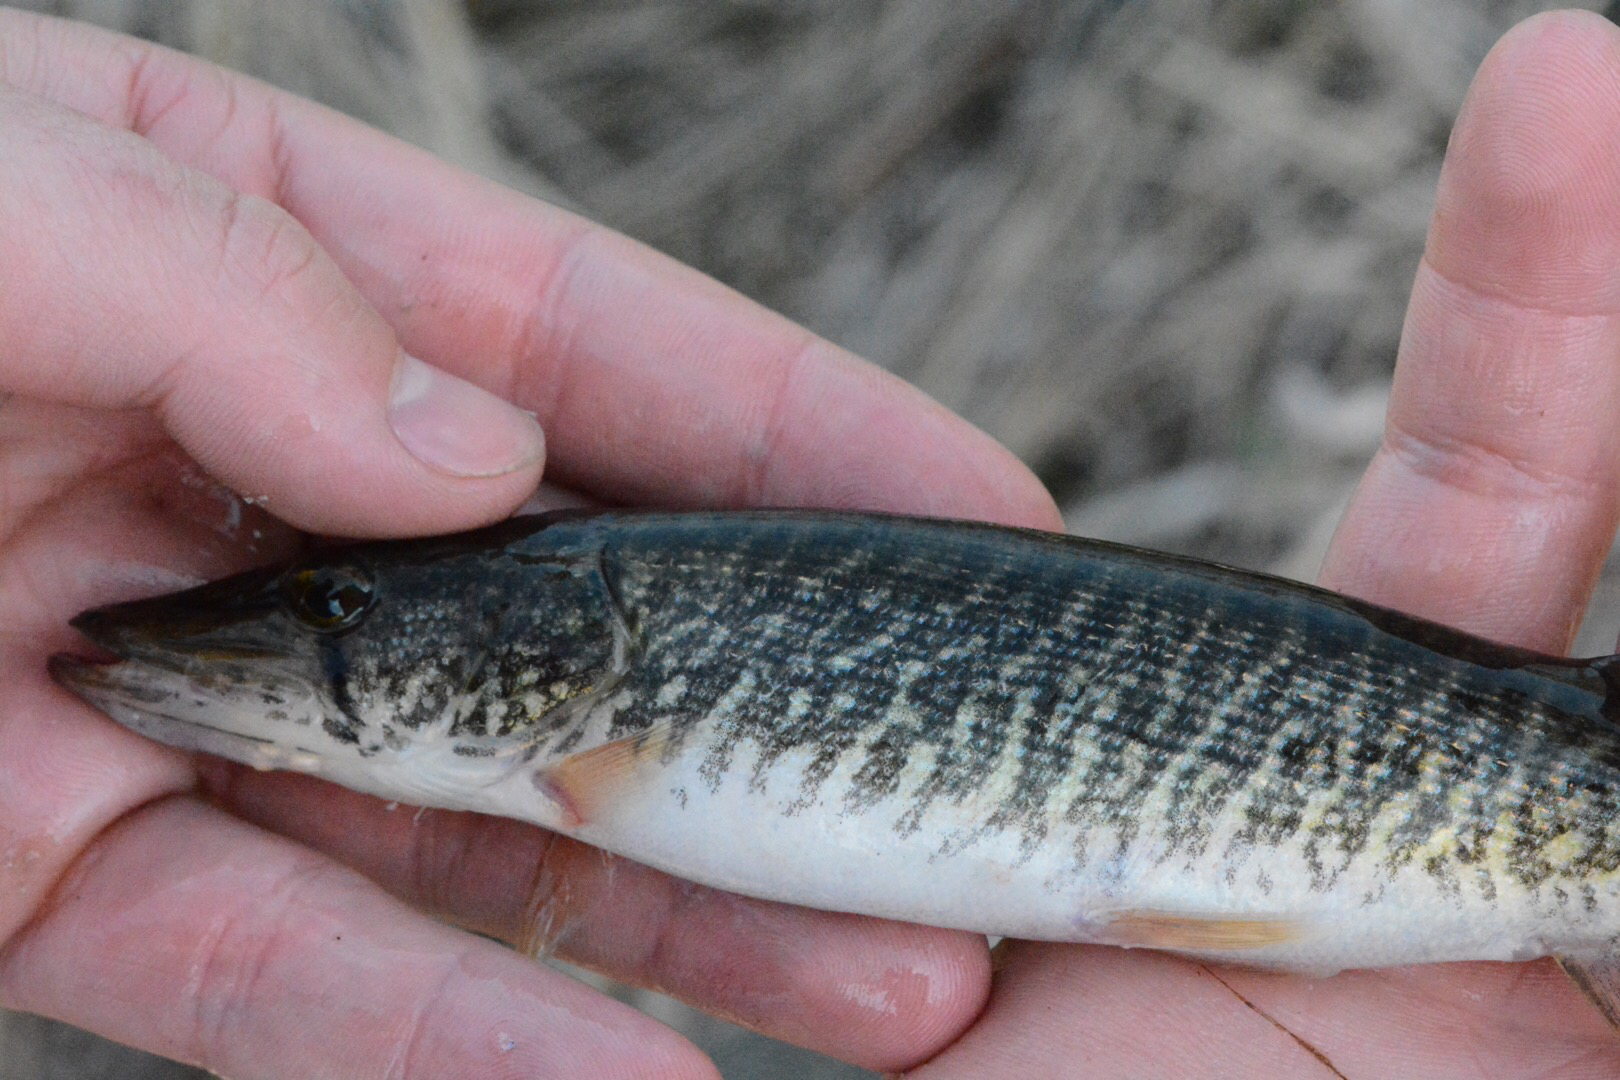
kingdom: Animalia
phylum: Chordata
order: Esociformes
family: Esocidae
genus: Esox
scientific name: Esox americanus
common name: Redfin pickerel
